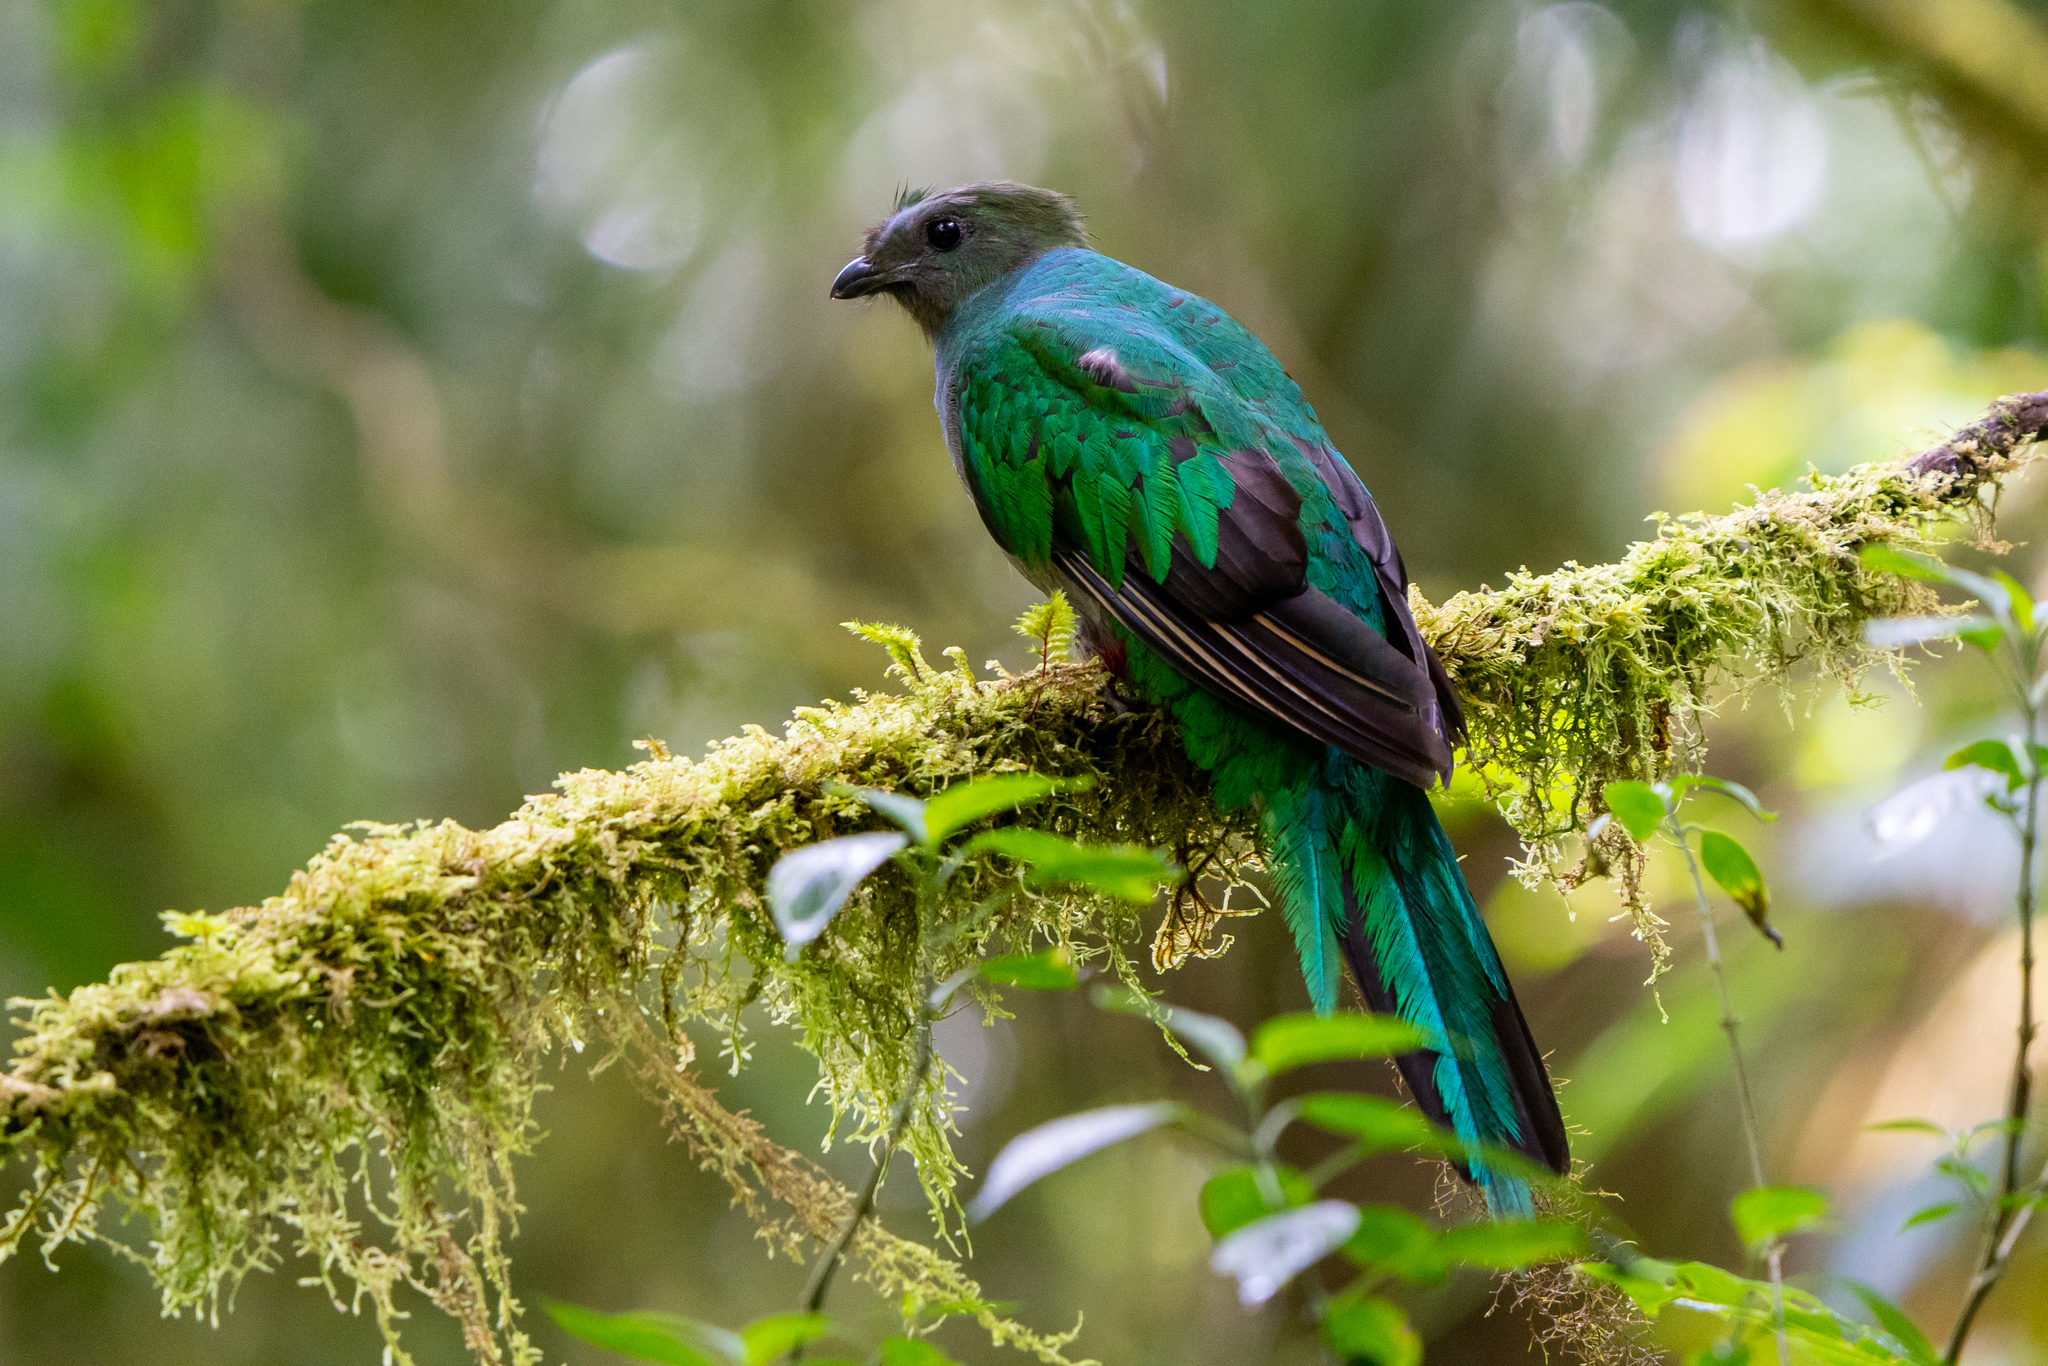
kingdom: Animalia
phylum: Chordata
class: Aves
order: Trogoniformes
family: Trogonidae
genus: Pharomachrus
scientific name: Pharomachrus mocinno
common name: Resplendent quetzal
